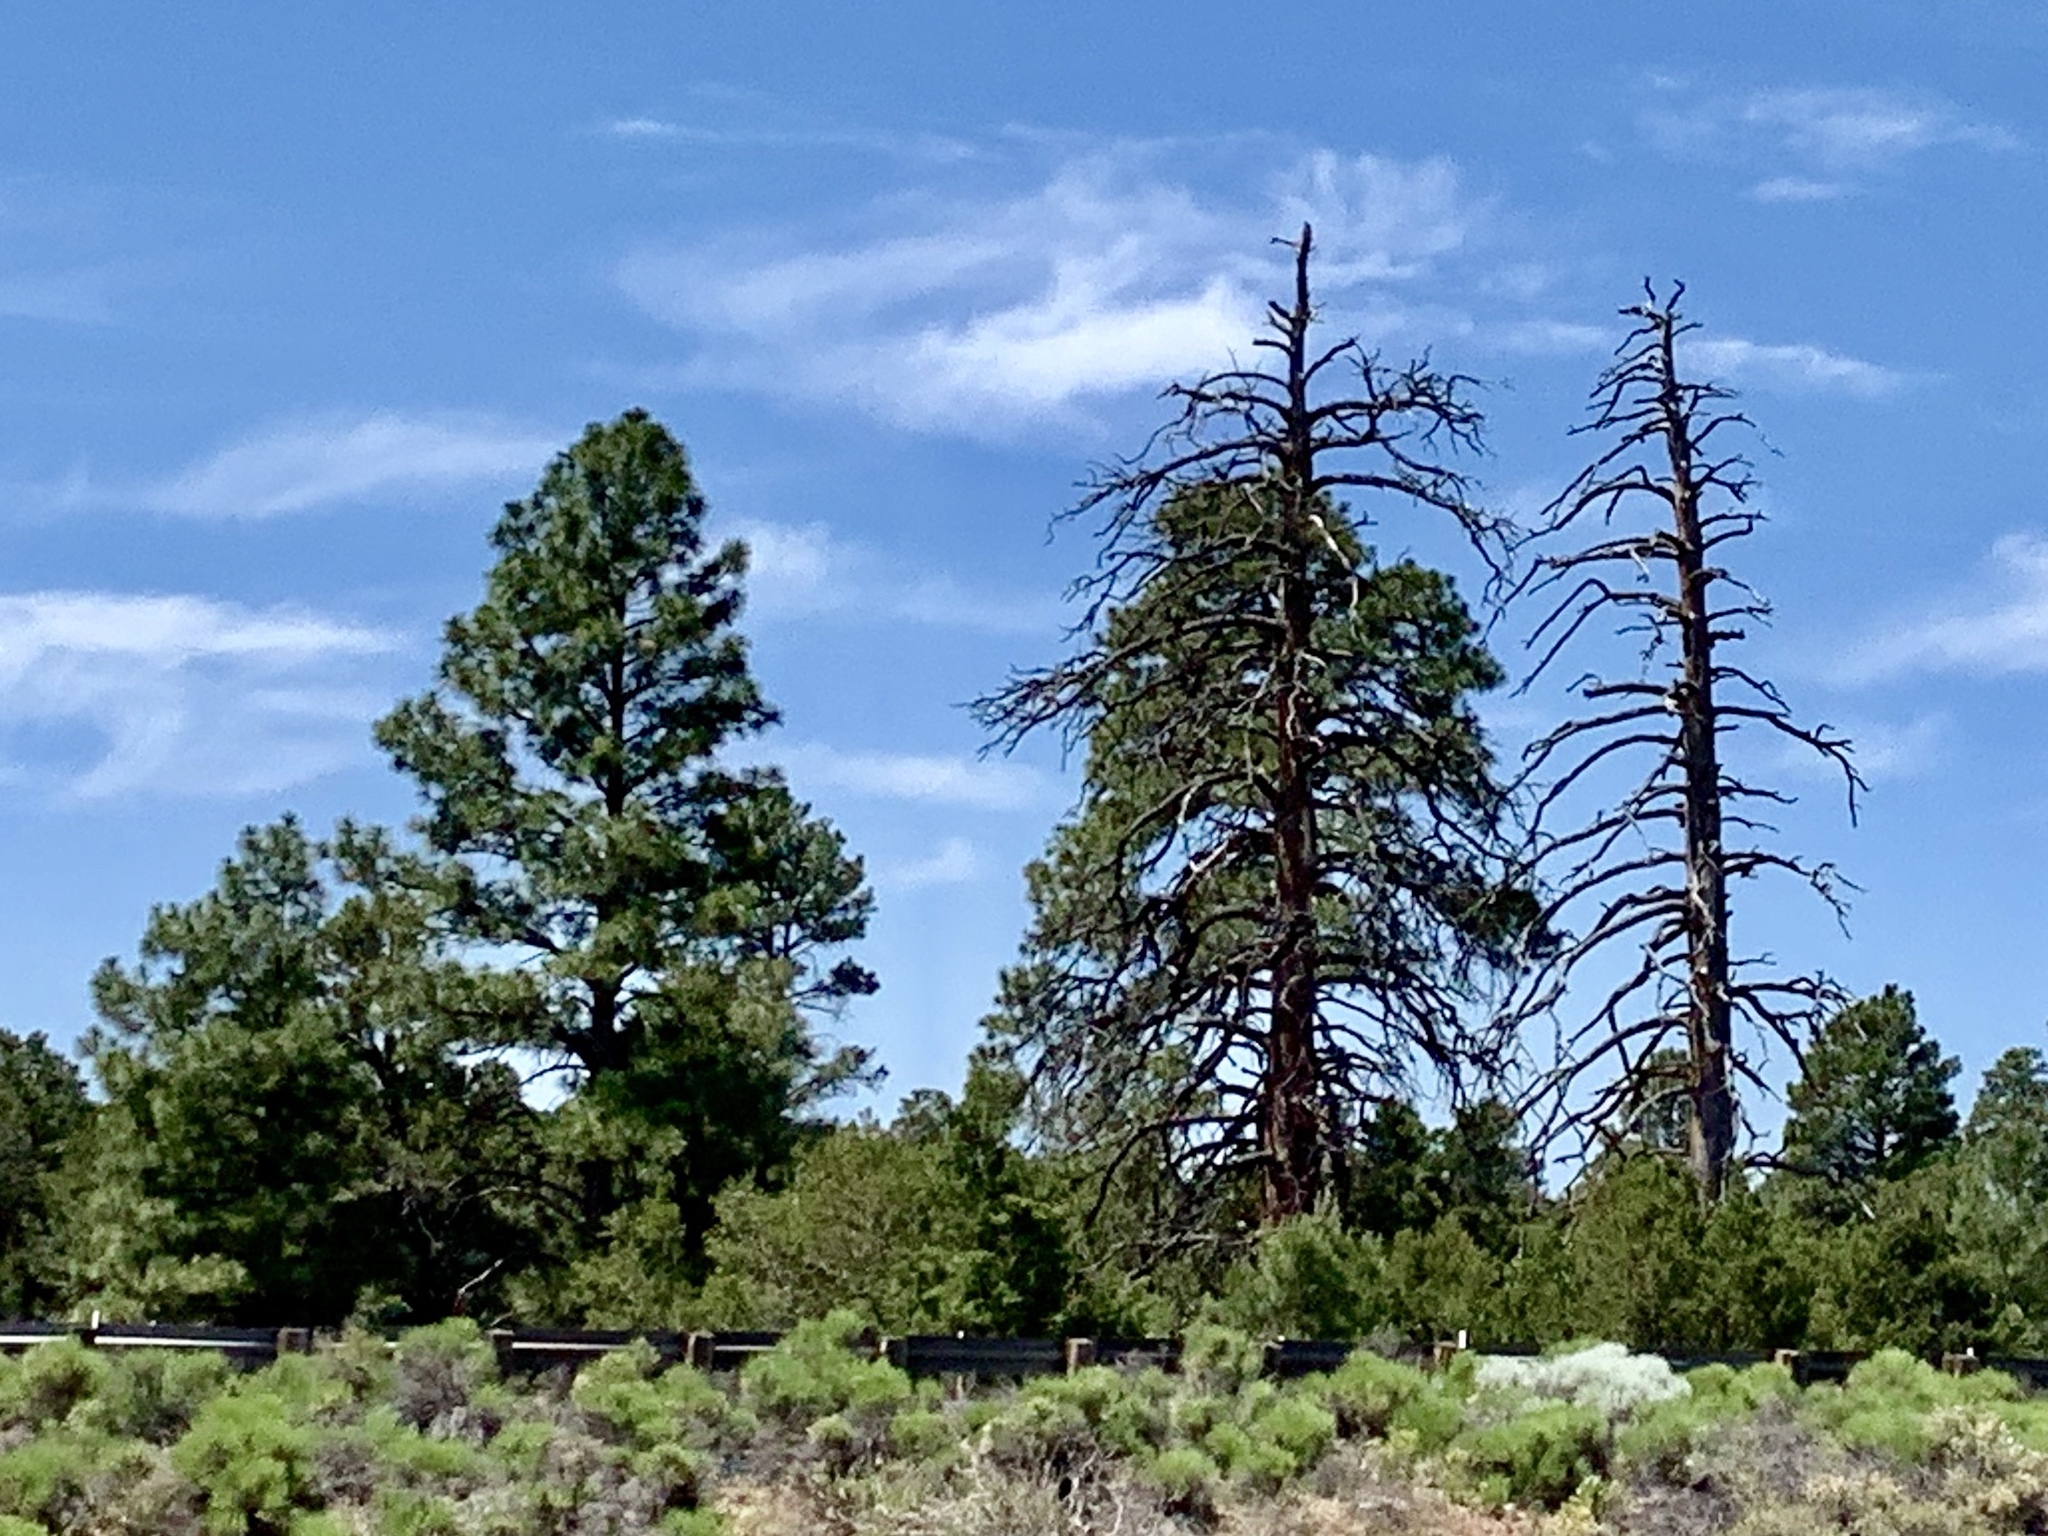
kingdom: Plantae
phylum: Tracheophyta
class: Pinopsida
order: Pinales
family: Pinaceae
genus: Pinus
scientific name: Pinus ponderosa
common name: Western yellow-pine
